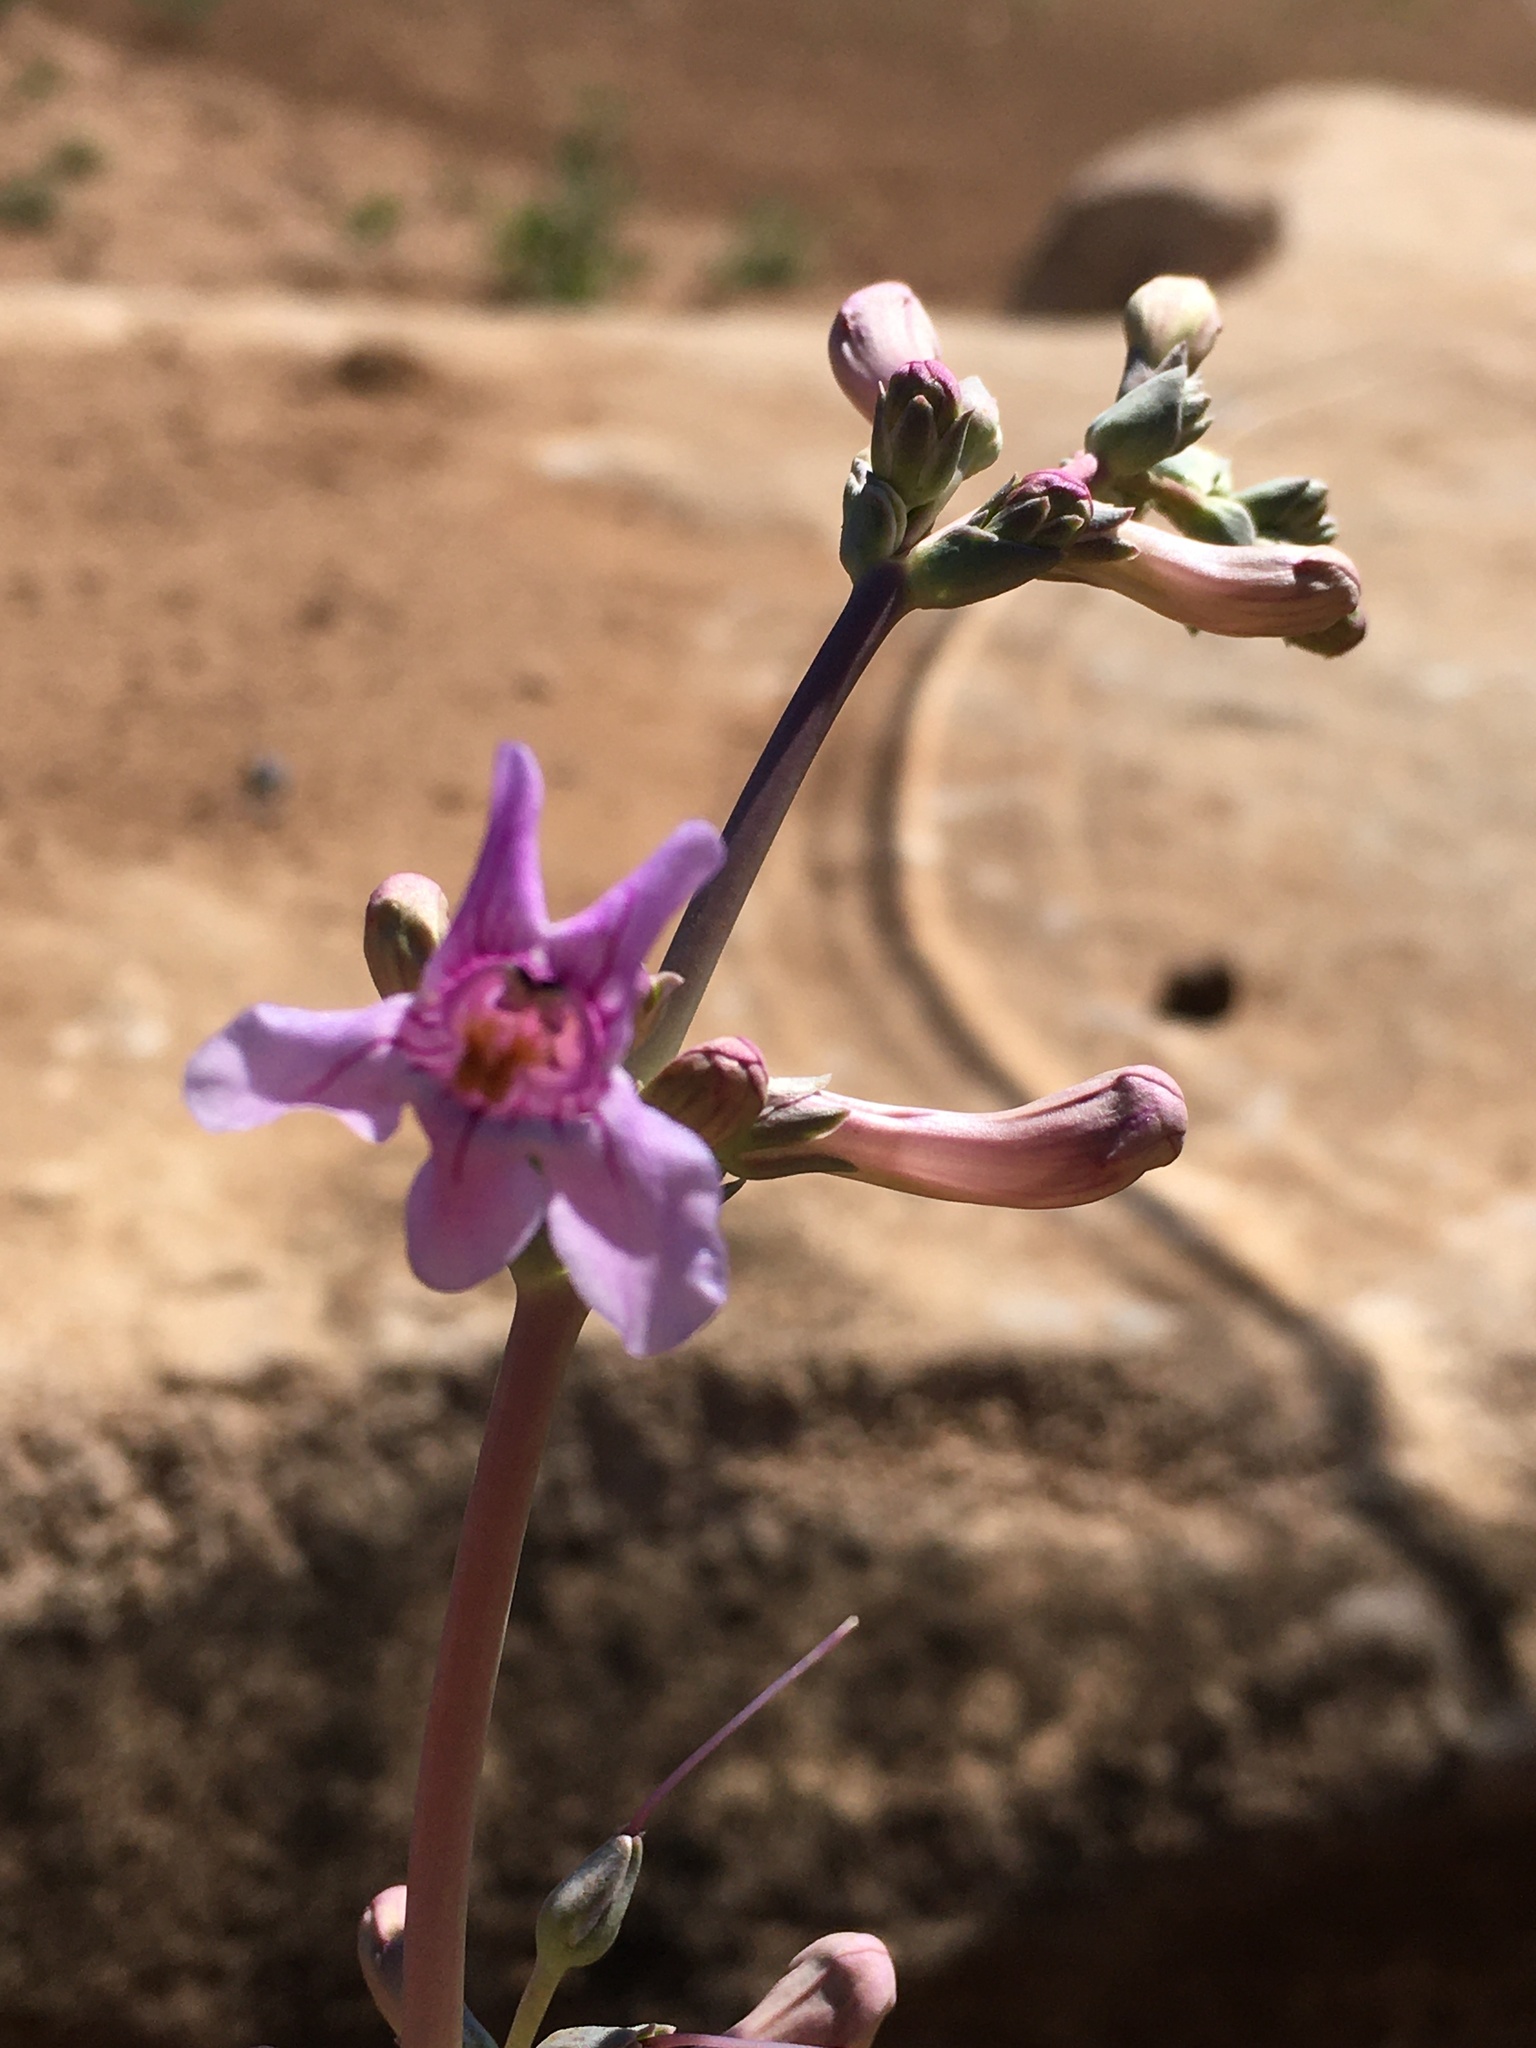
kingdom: Plantae
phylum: Tracheophyta
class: Magnoliopsida
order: Lamiales
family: Plantaginaceae
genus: Penstemon
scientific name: Penstemon fendleri
